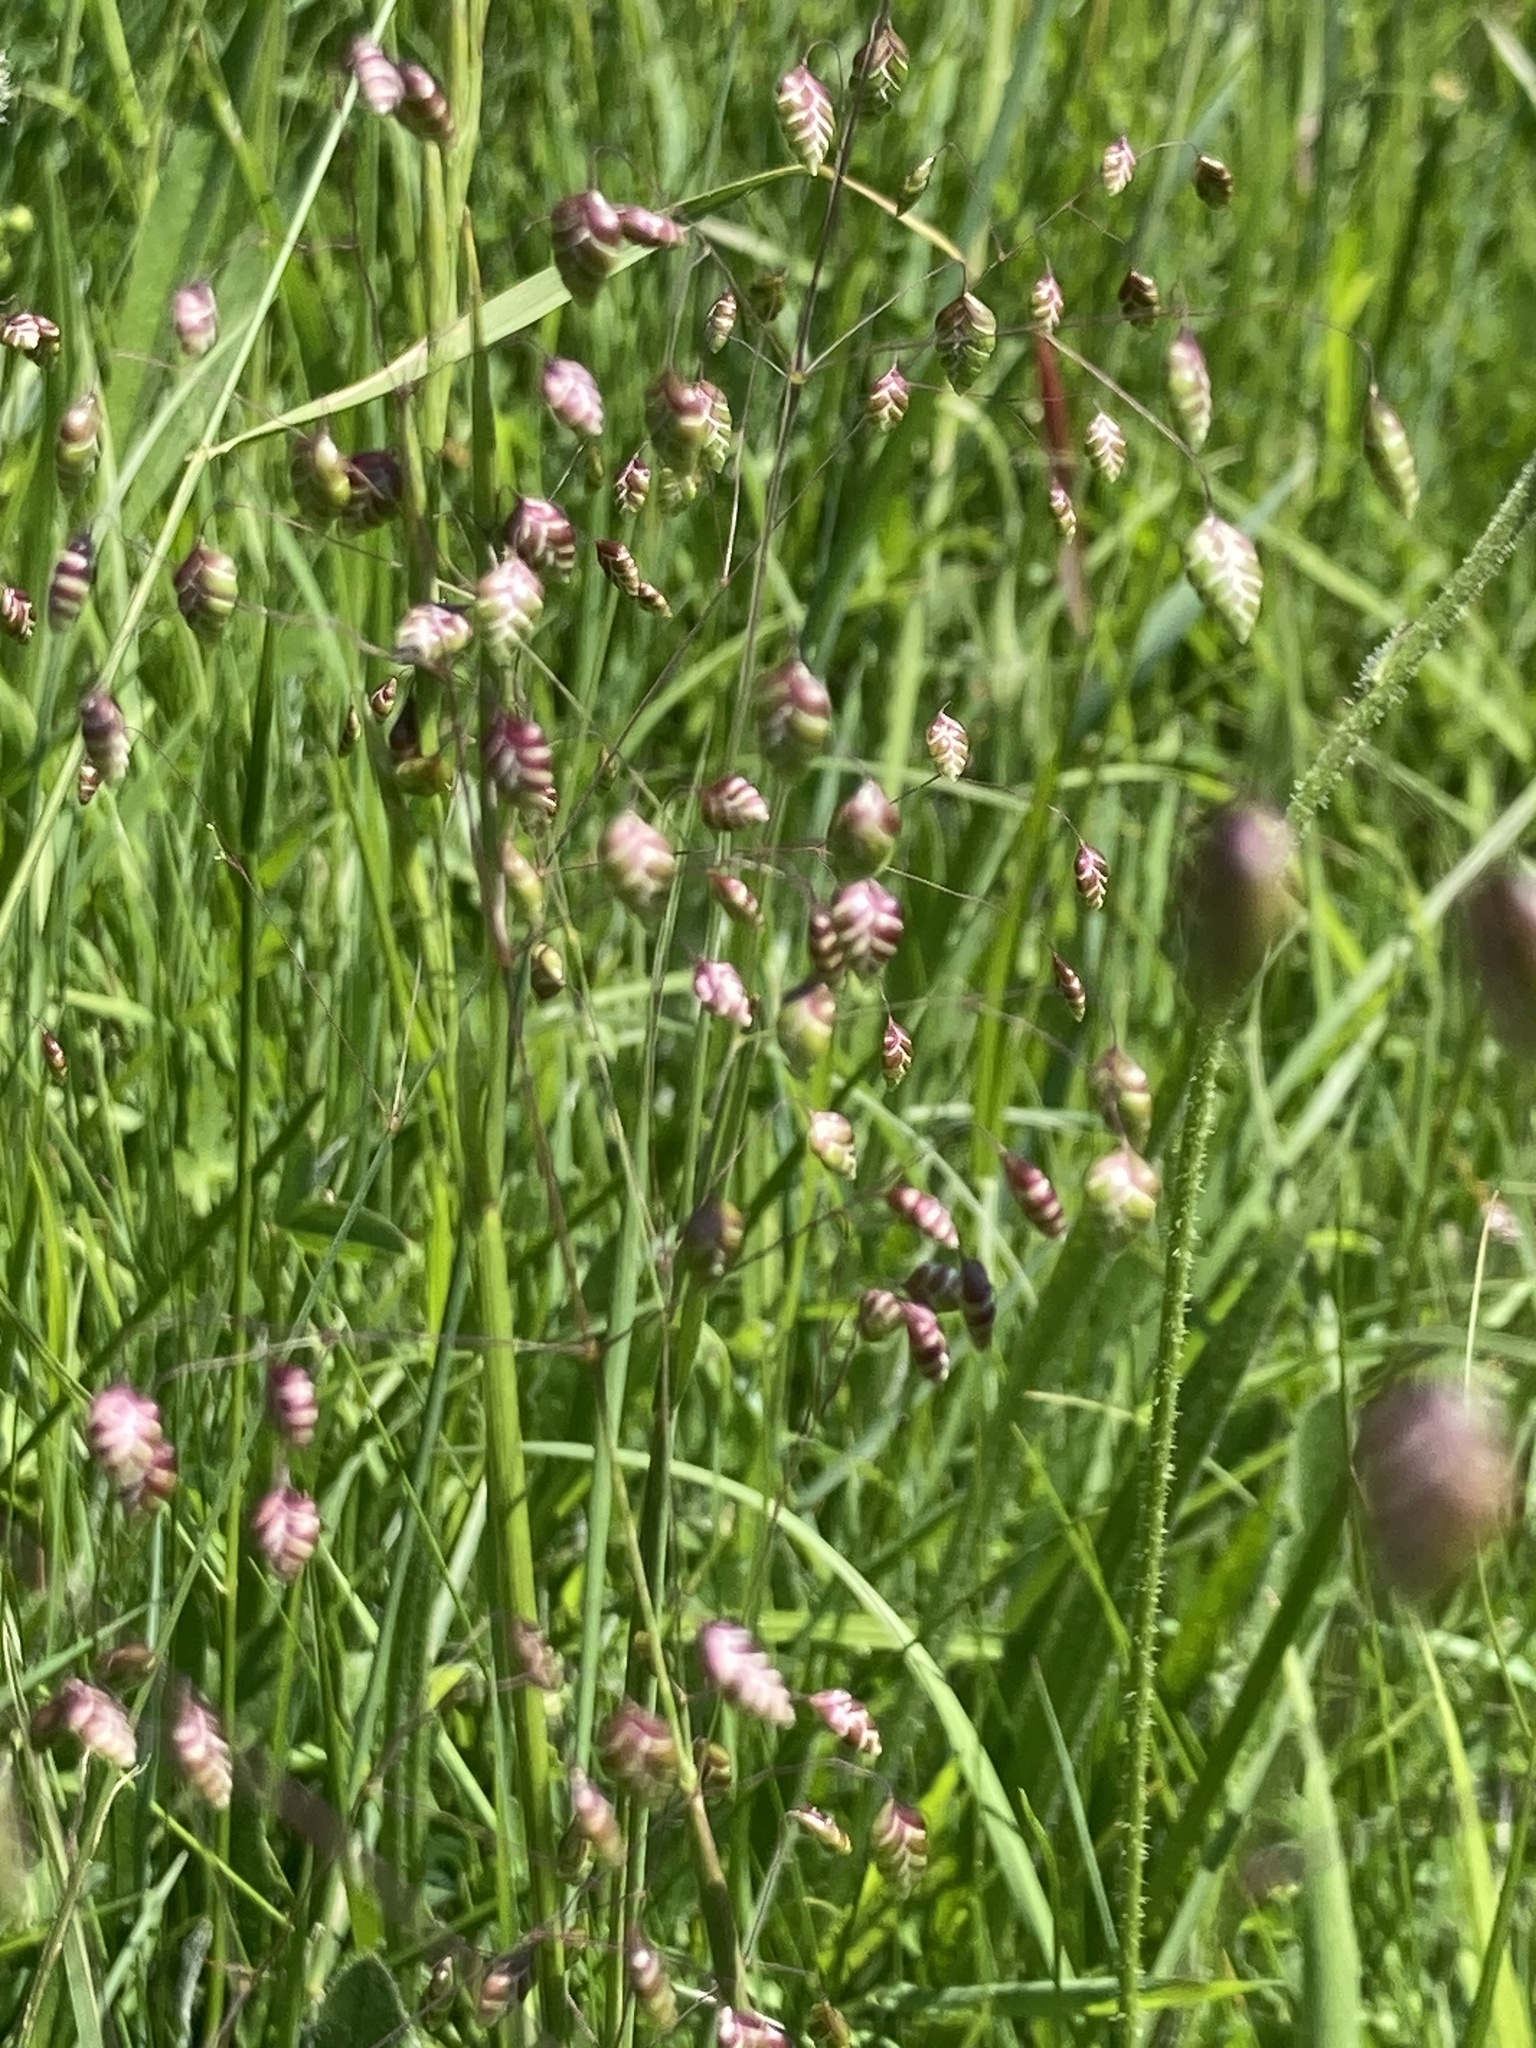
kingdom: Plantae
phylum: Tracheophyta
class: Liliopsida
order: Poales
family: Poaceae
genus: Briza
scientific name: Briza media
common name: Quaking grass
